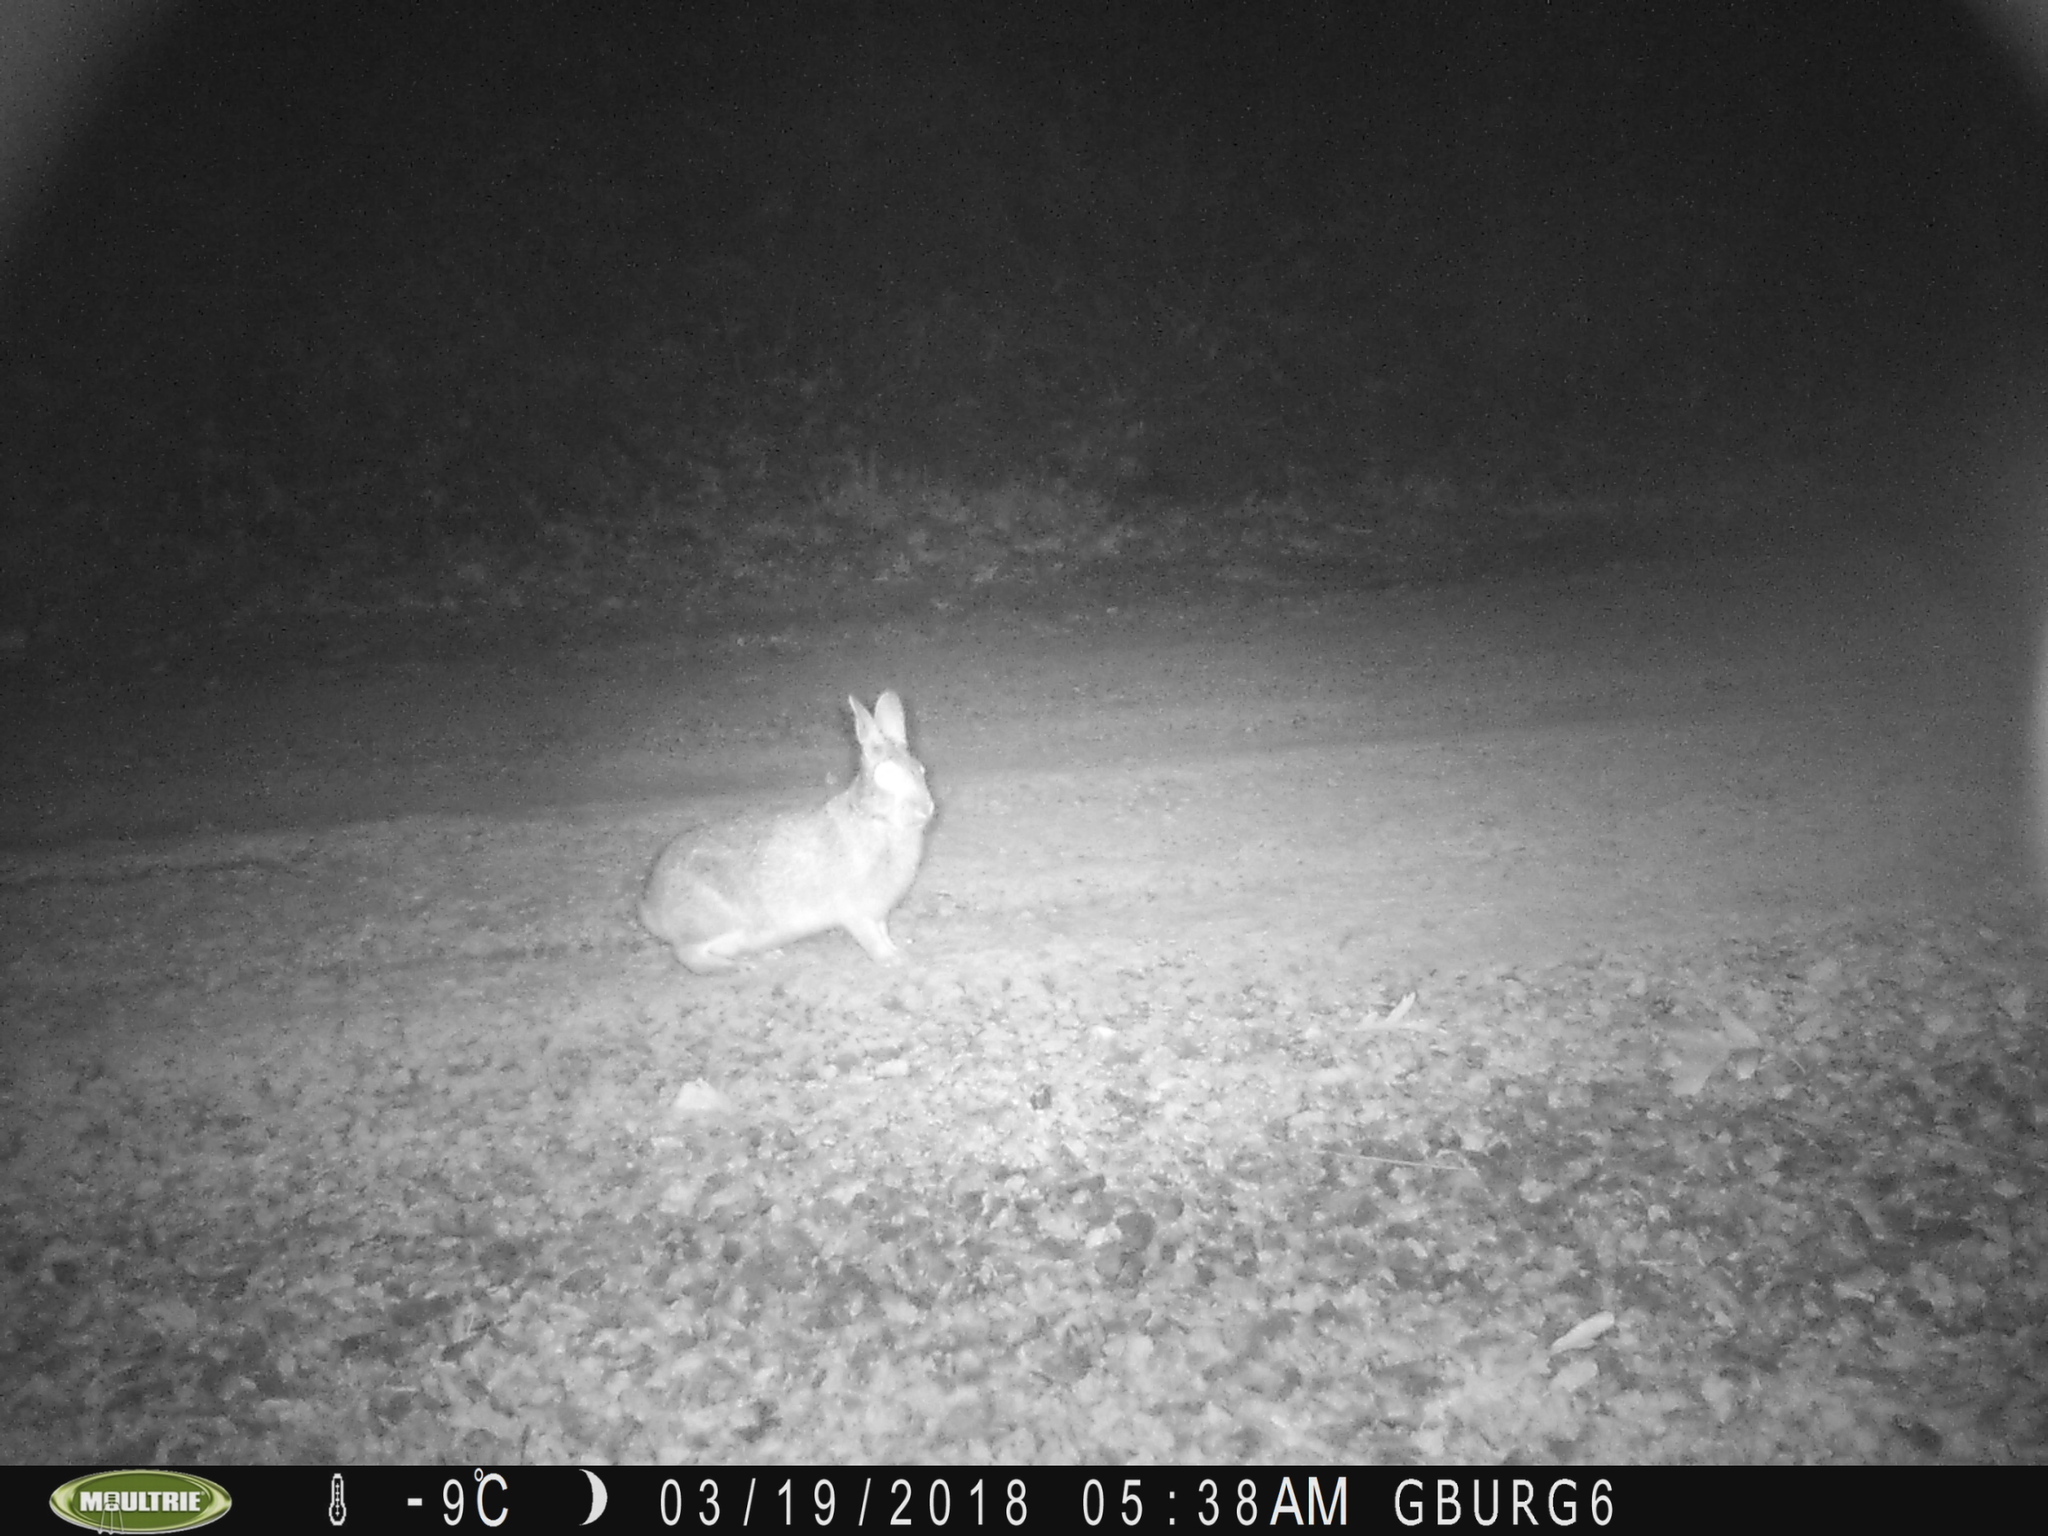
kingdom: Animalia
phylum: Chordata
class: Mammalia
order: Lagomorpha
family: Leporidae
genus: Sylvilagus
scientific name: Sylvilagus floridanus
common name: Eastern cottontail
